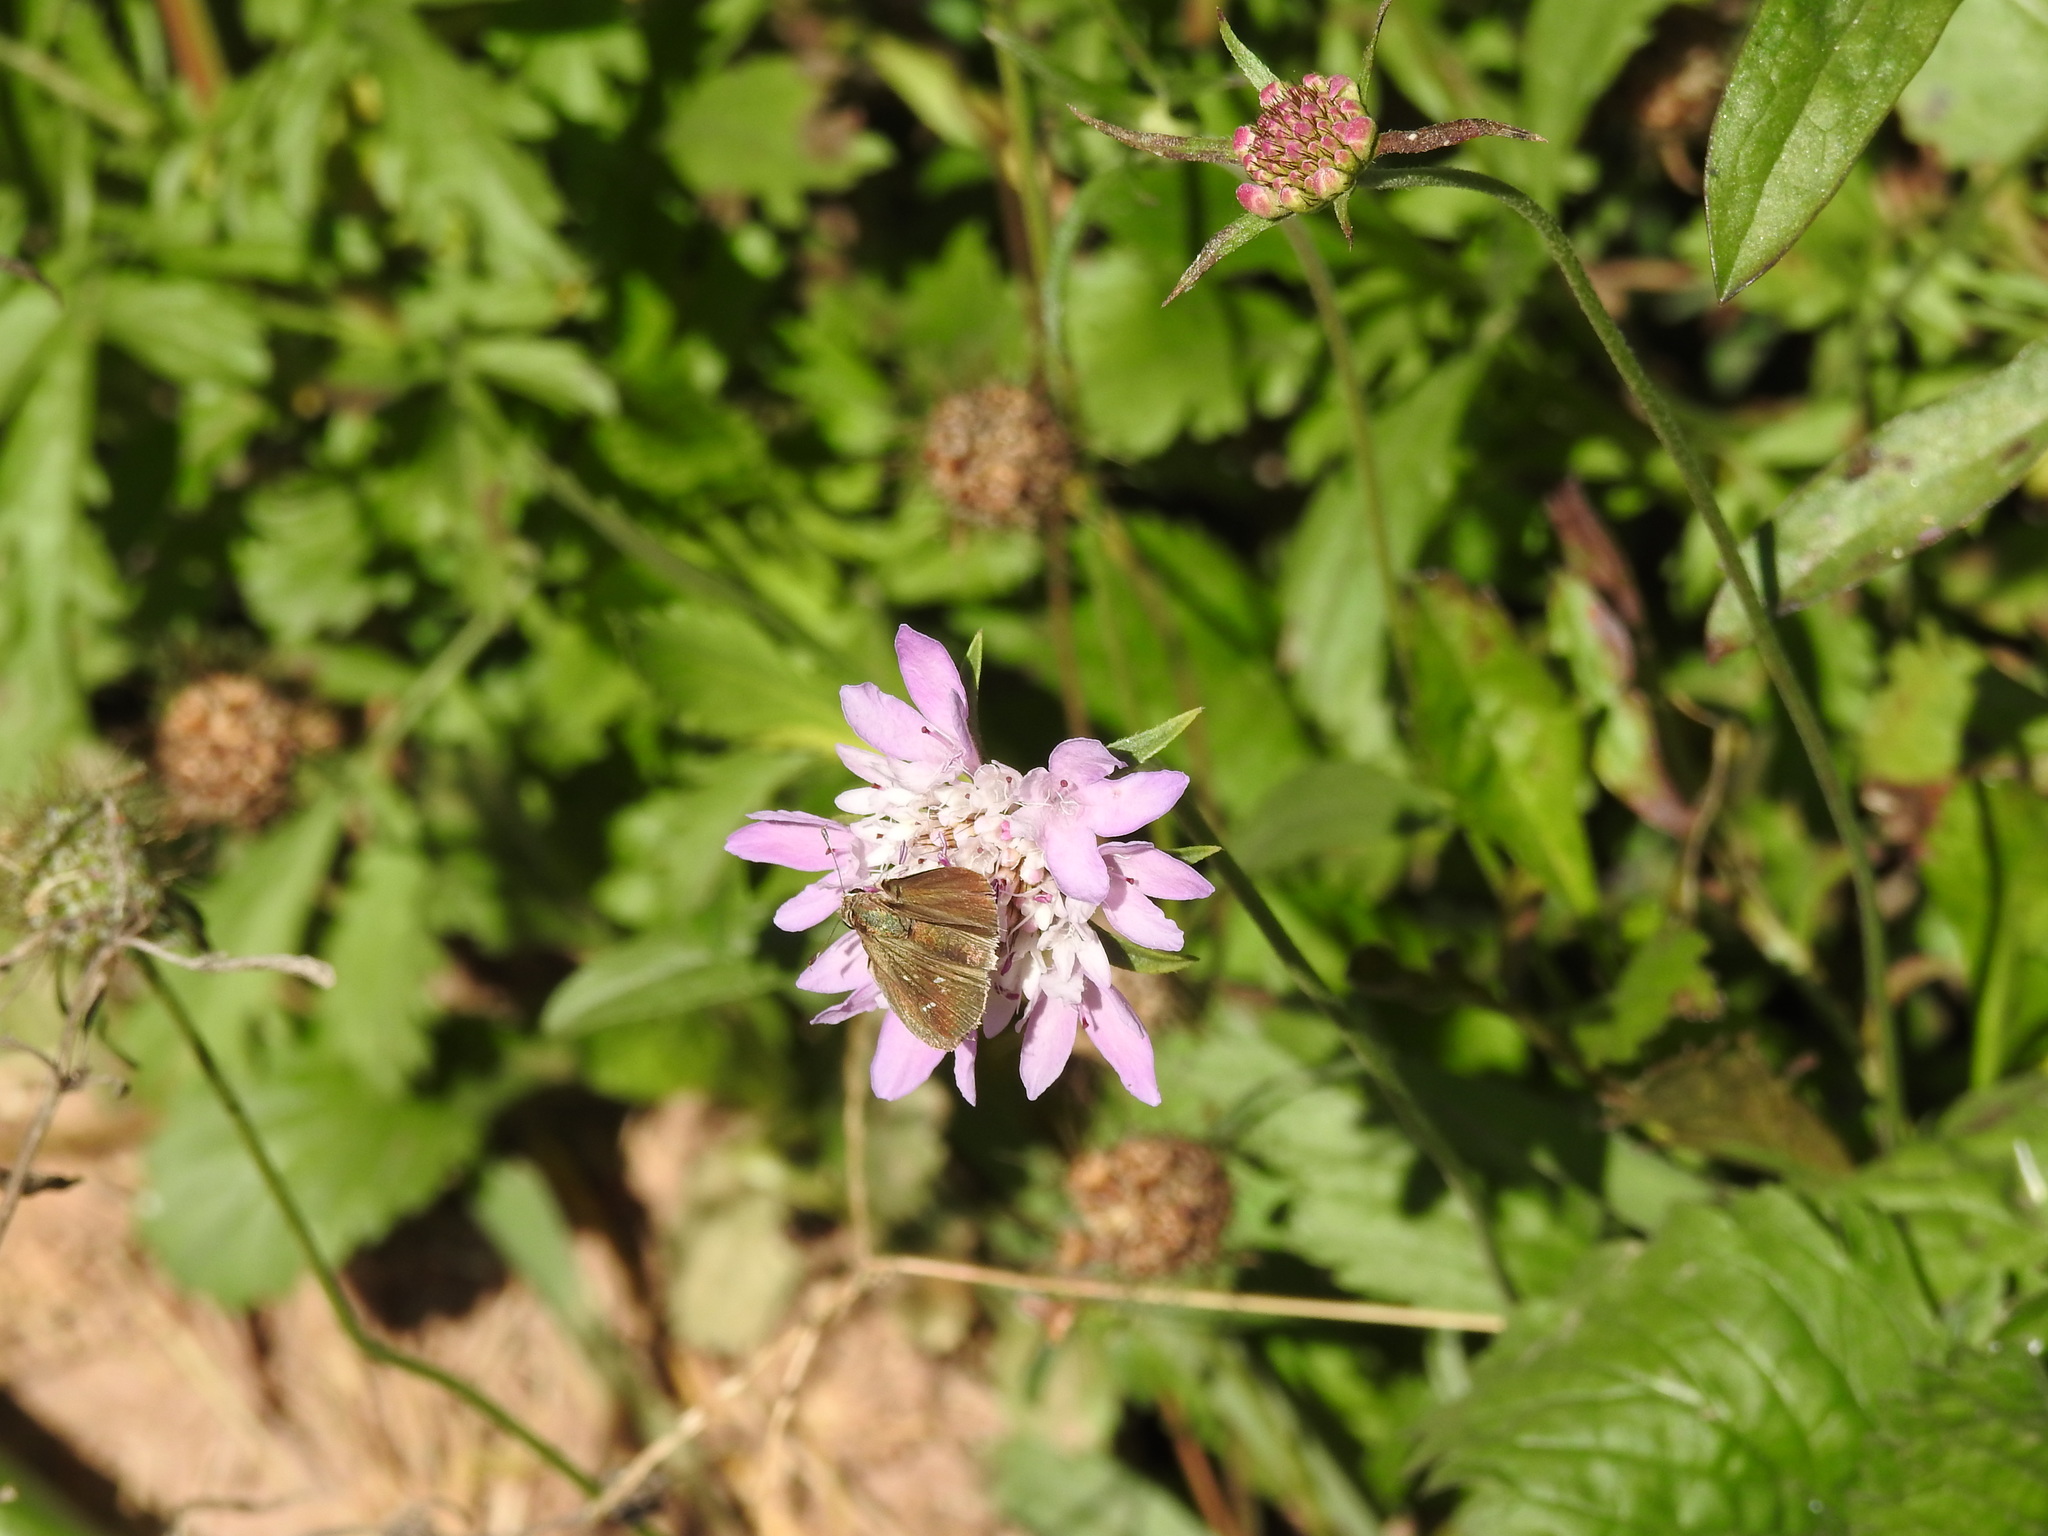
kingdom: Animalia
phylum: Arthropoda
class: Insecta
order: Lepidoptera
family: Hesperiidae
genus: Lerodea
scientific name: Lerodea eufala
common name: Eufala skipper
